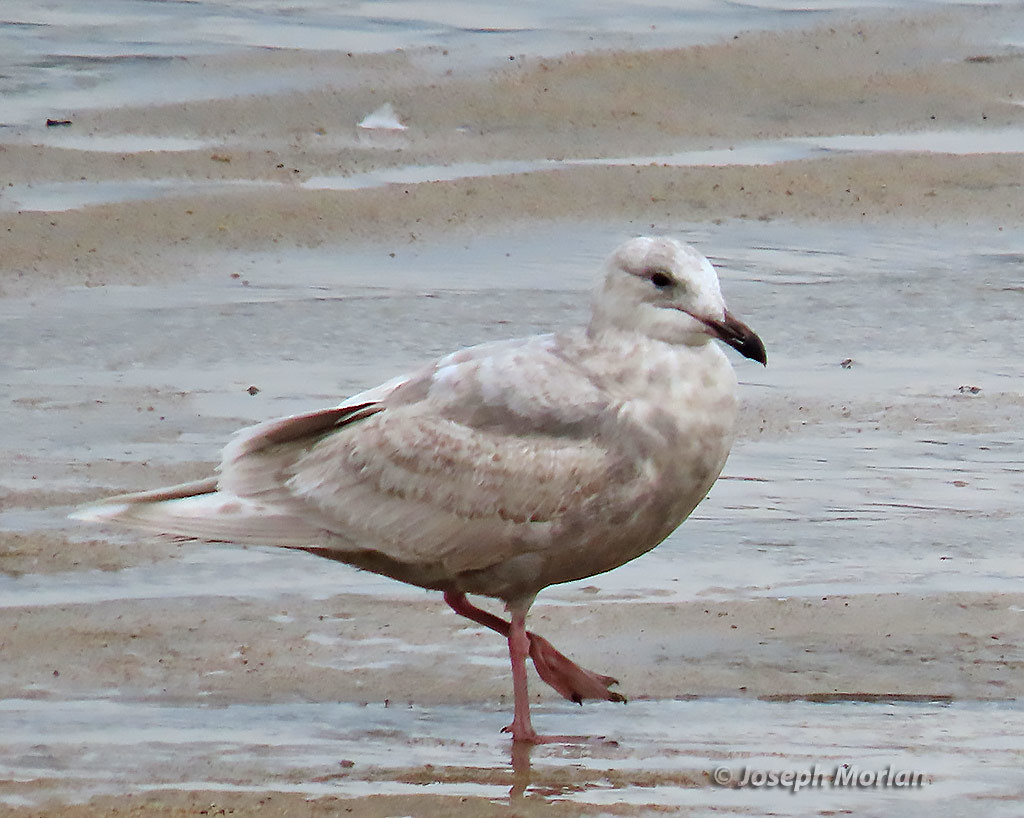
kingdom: Animalia
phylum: Chordata
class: Aves
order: Charadriiformes
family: Laridae
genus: Larus
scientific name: Larus glaucescens
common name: Glaucous-winged gull
